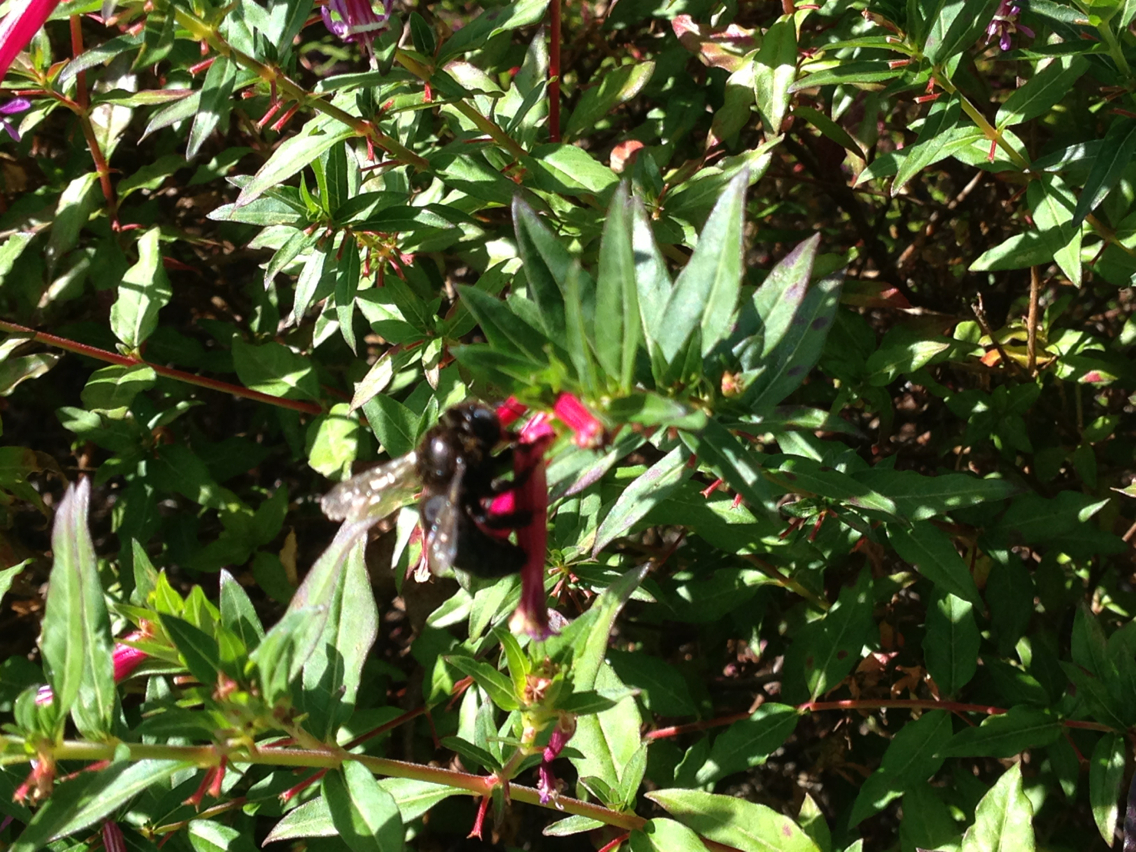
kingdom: Animalia
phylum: Arthropoda
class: Insecta
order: Hymenoptera
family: Apidae
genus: Xylocopa
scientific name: Xylocopa tabaniformis
